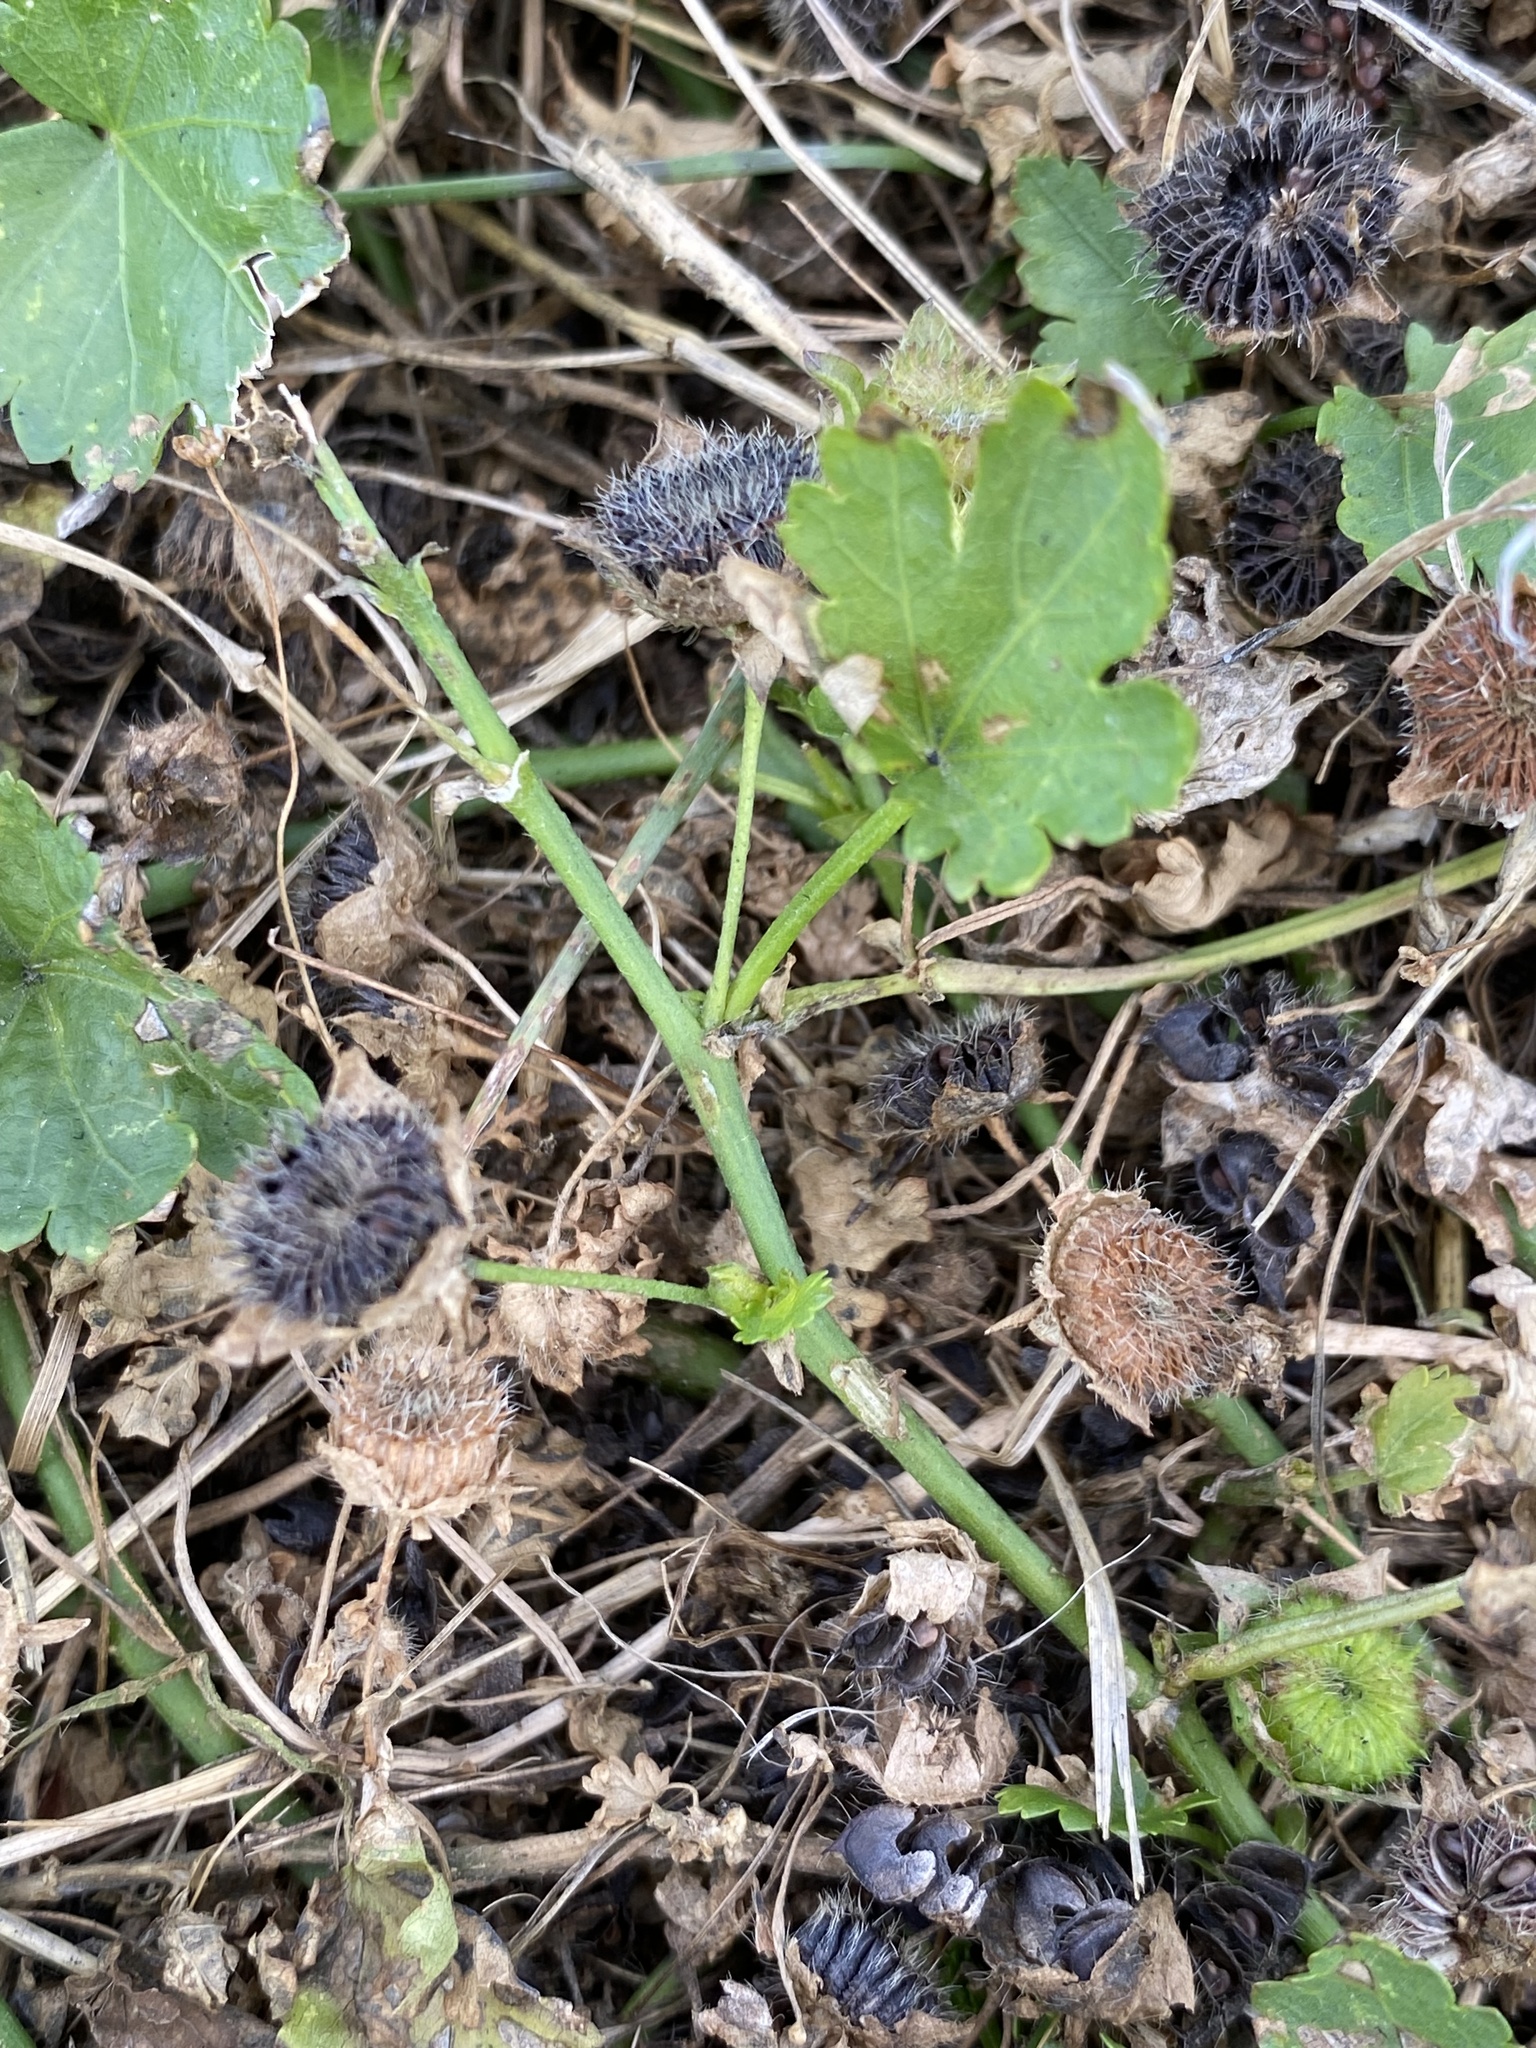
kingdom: Plantae
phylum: Tracheophyta
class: Magnoliopsida
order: Malvales
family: Malvaceae
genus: Modiola
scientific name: Modiola caroliniana
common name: Carolina bristlemallow
